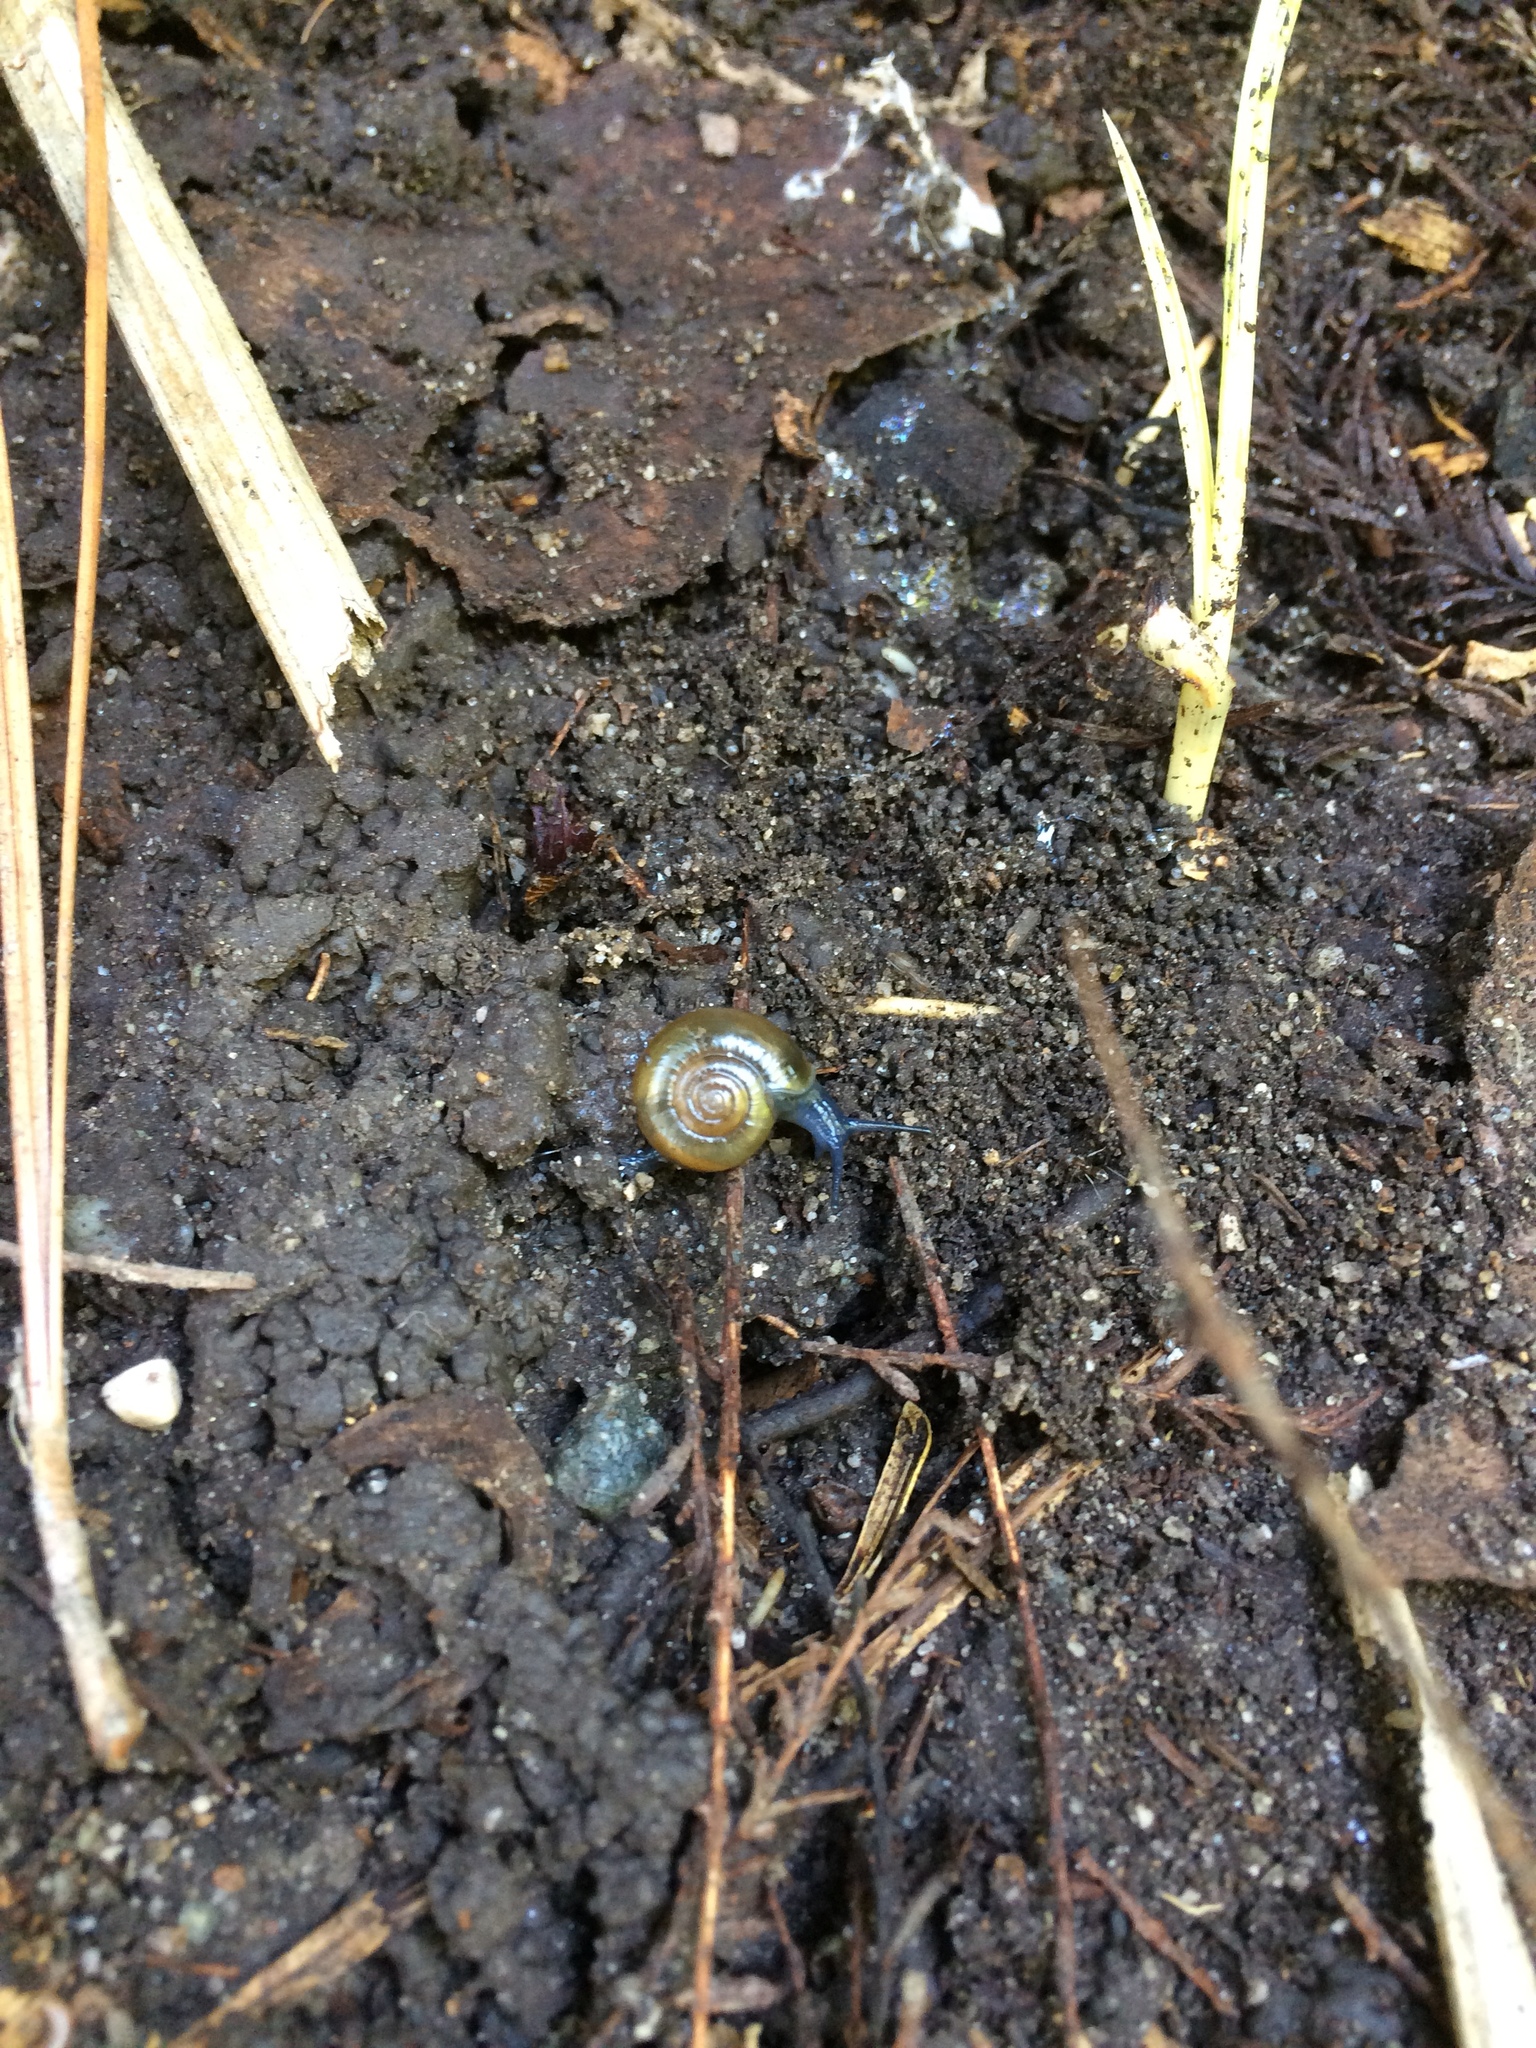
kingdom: Animalia
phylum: Mollusca
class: Gastropoda
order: Stylommatophora
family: Oxychilidae
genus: Oxychilus
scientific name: Oxychilus draparnaudi
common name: Draparnaud's glass snail
